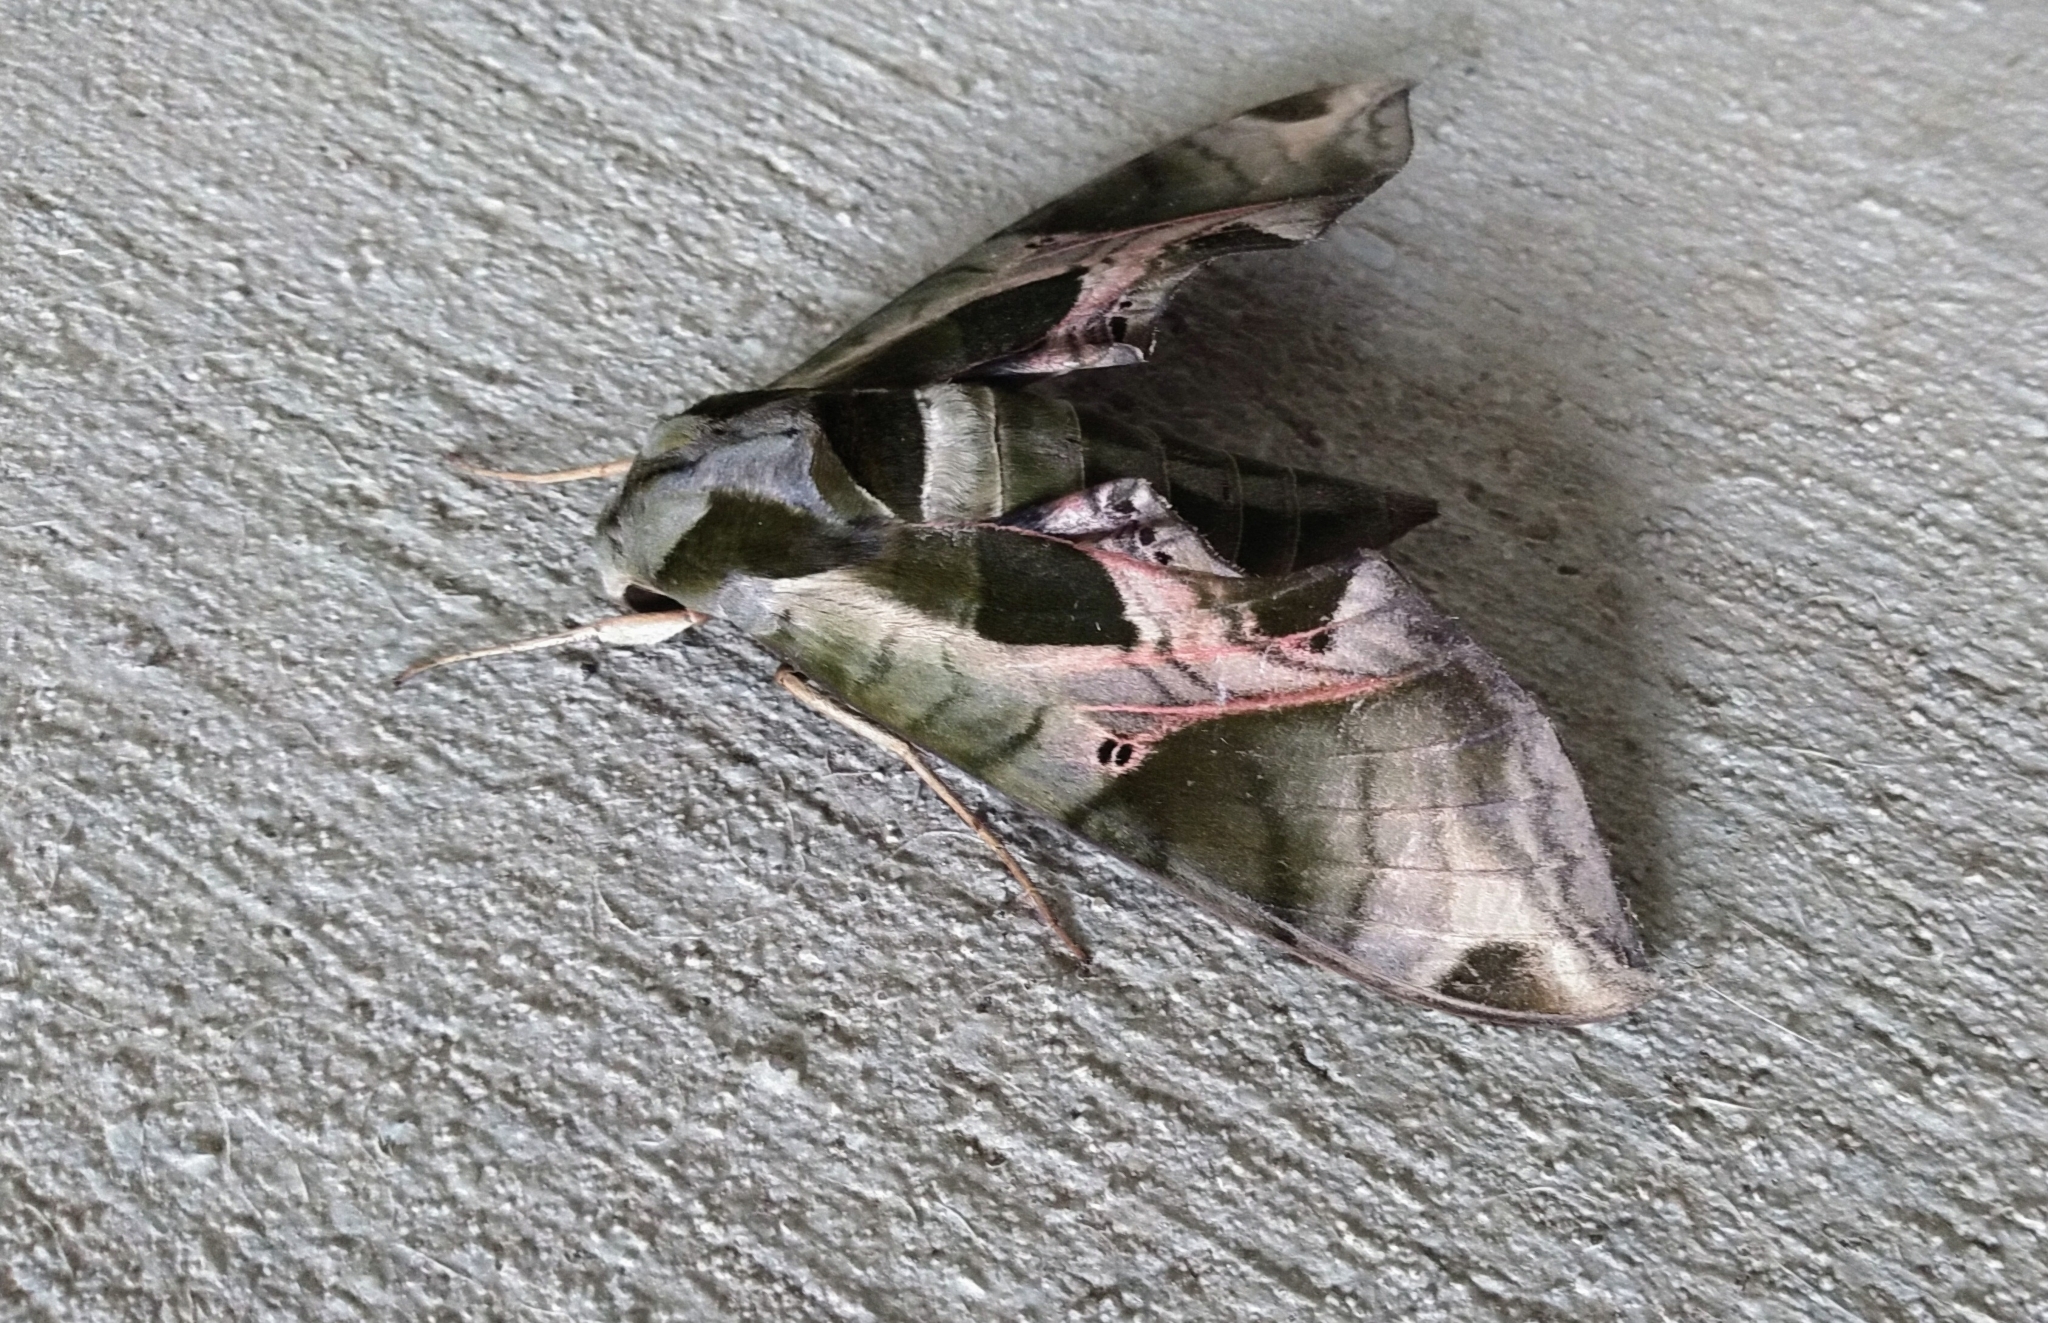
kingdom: Animalia
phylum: Arthropoda
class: Insecta
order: Lepidoptera
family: Sphingidae
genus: Eumorpha
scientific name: Eumorpha pandorus
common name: Pandora sphinx
